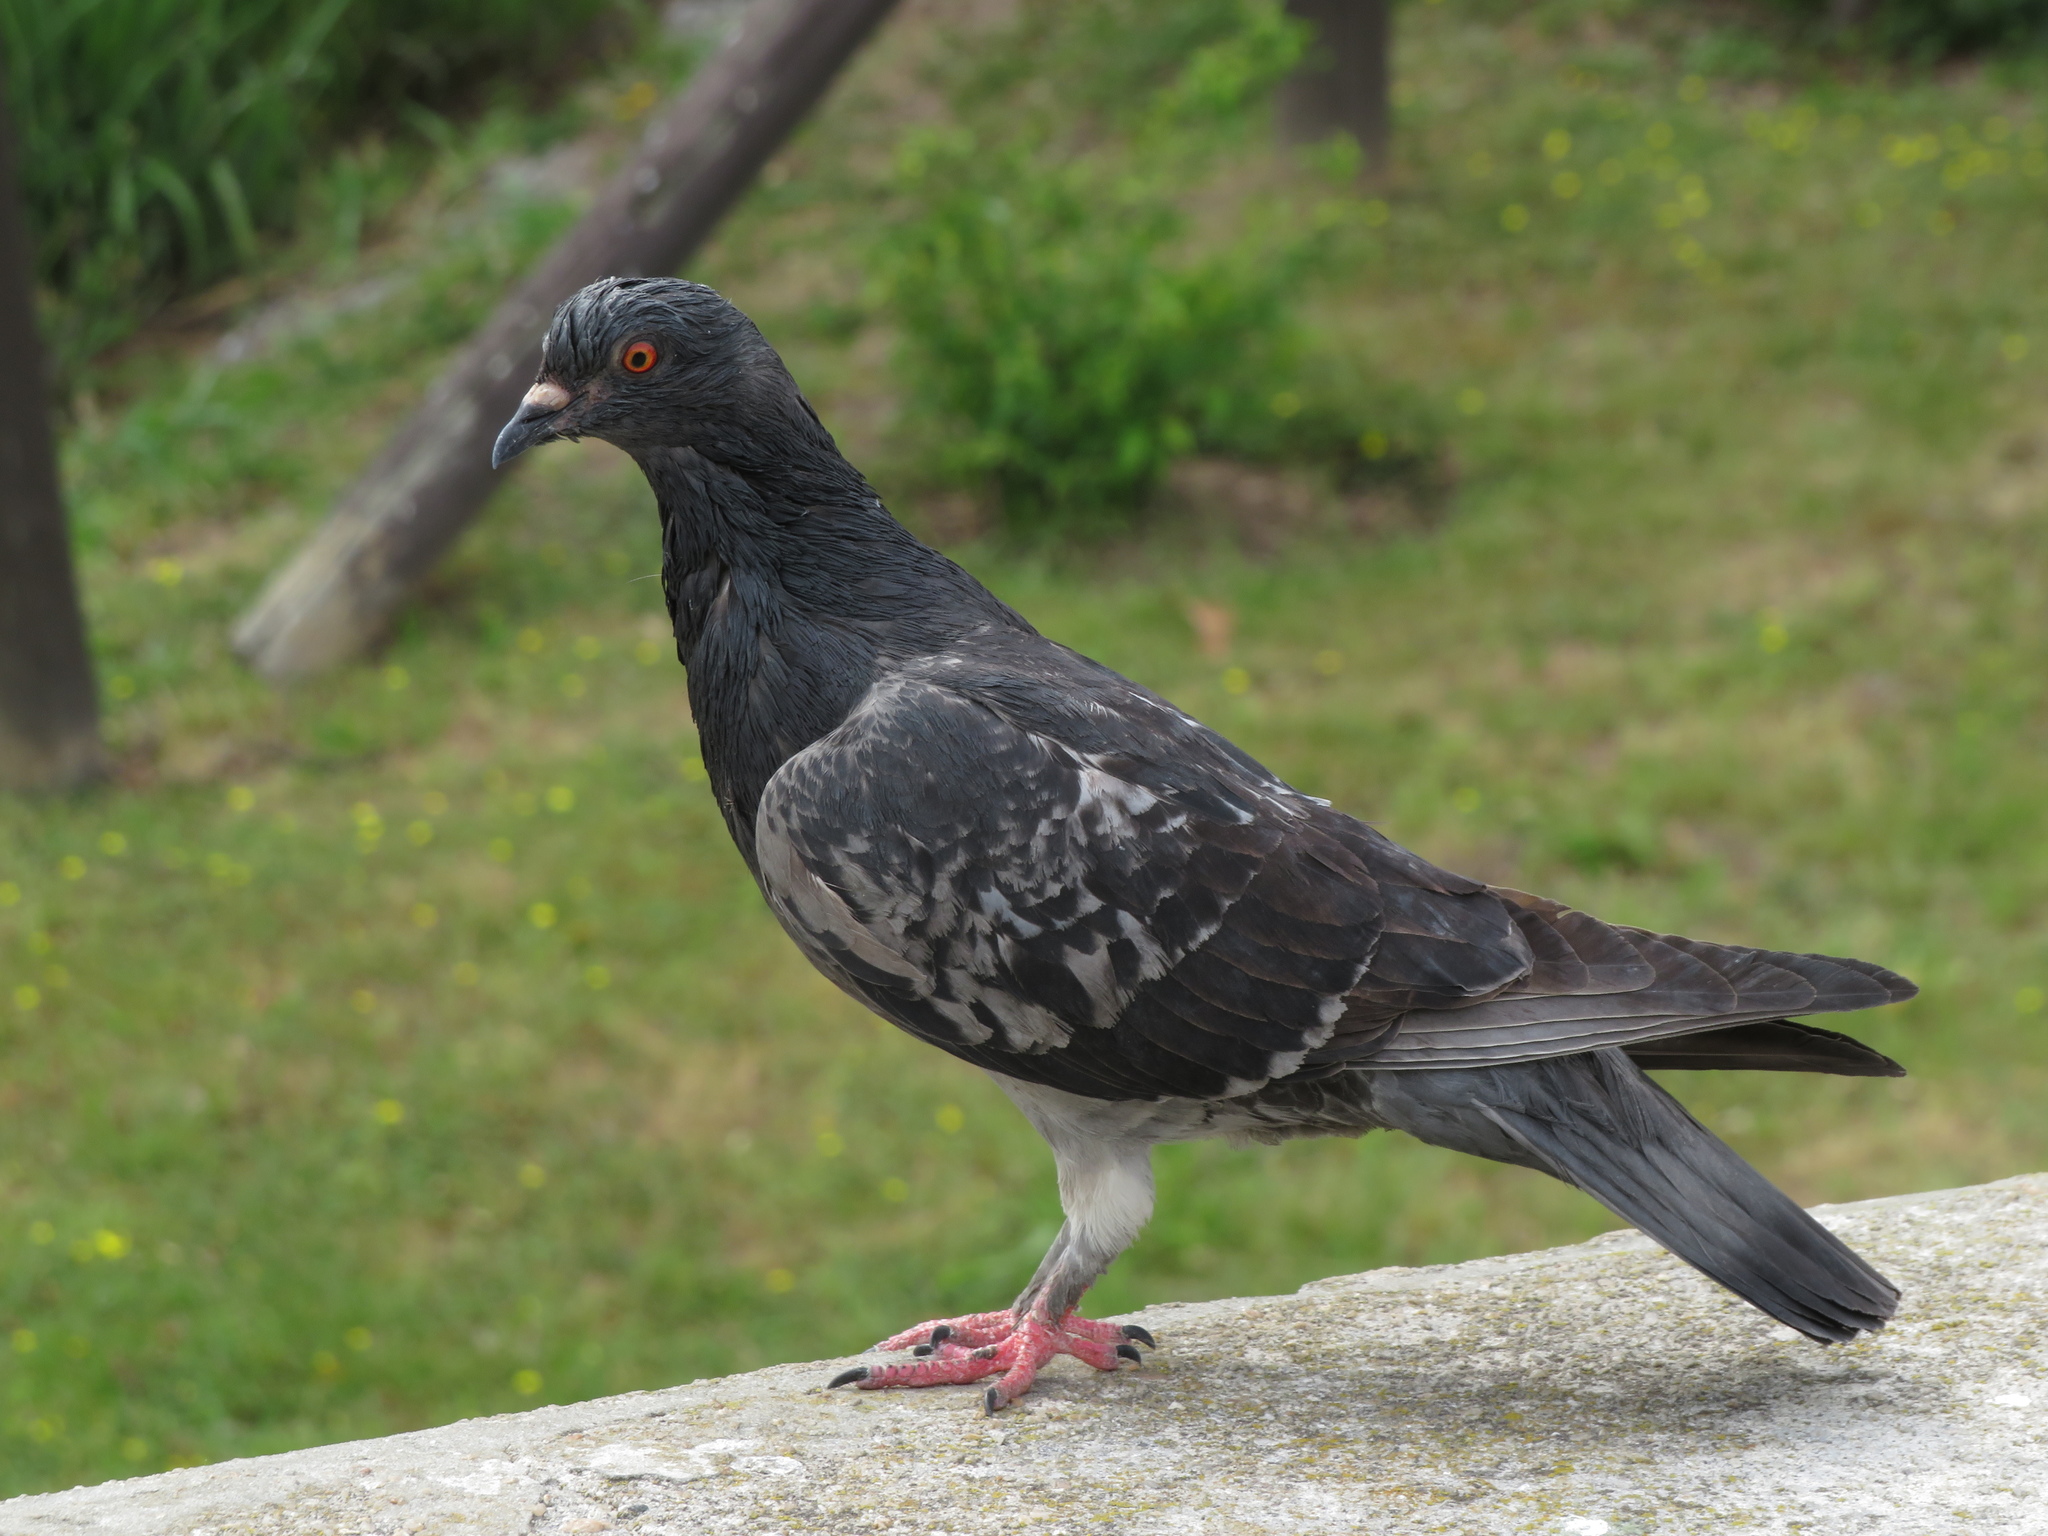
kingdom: Animalia
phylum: Chordata
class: Aves
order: Columbiformes
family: Columbidae
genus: Columba
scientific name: Columba livia
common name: Rock pigeon
